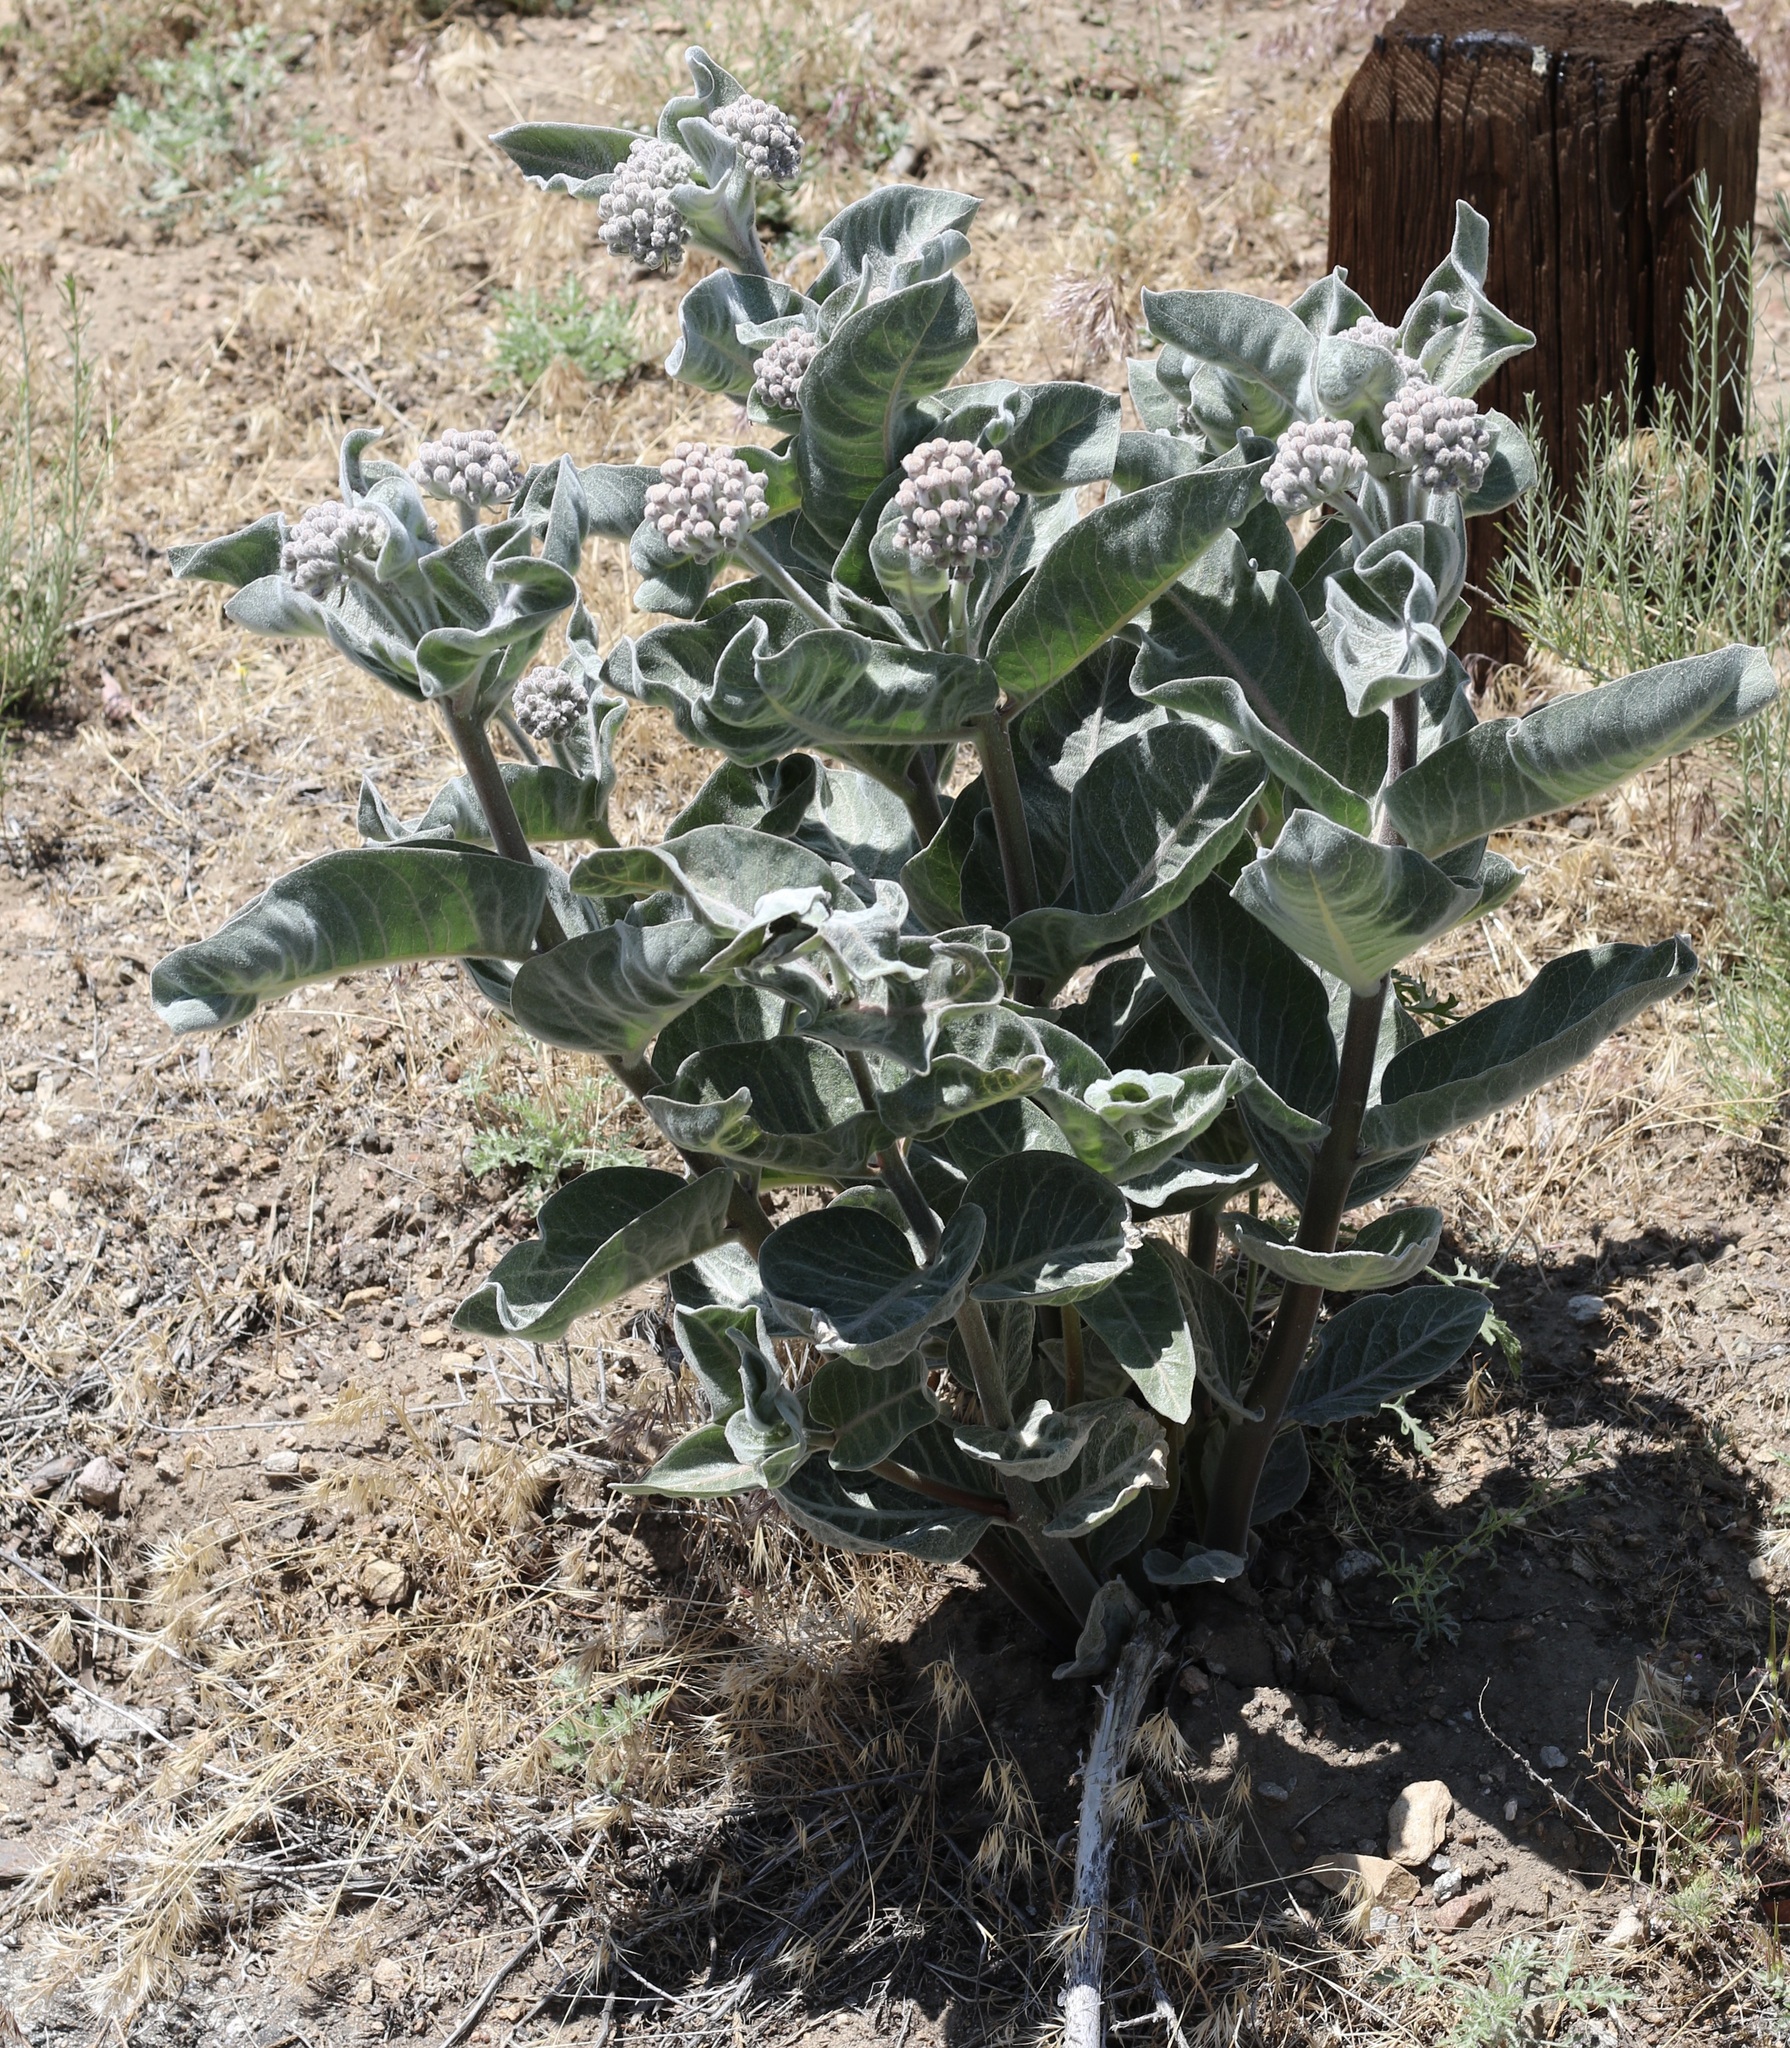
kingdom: Plantae
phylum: Tracheophyta
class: Magnoliopsida
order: Gentianales
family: Apocynaceae
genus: Asclepias
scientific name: Asclepias eriocarpa
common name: Indian milkweed
